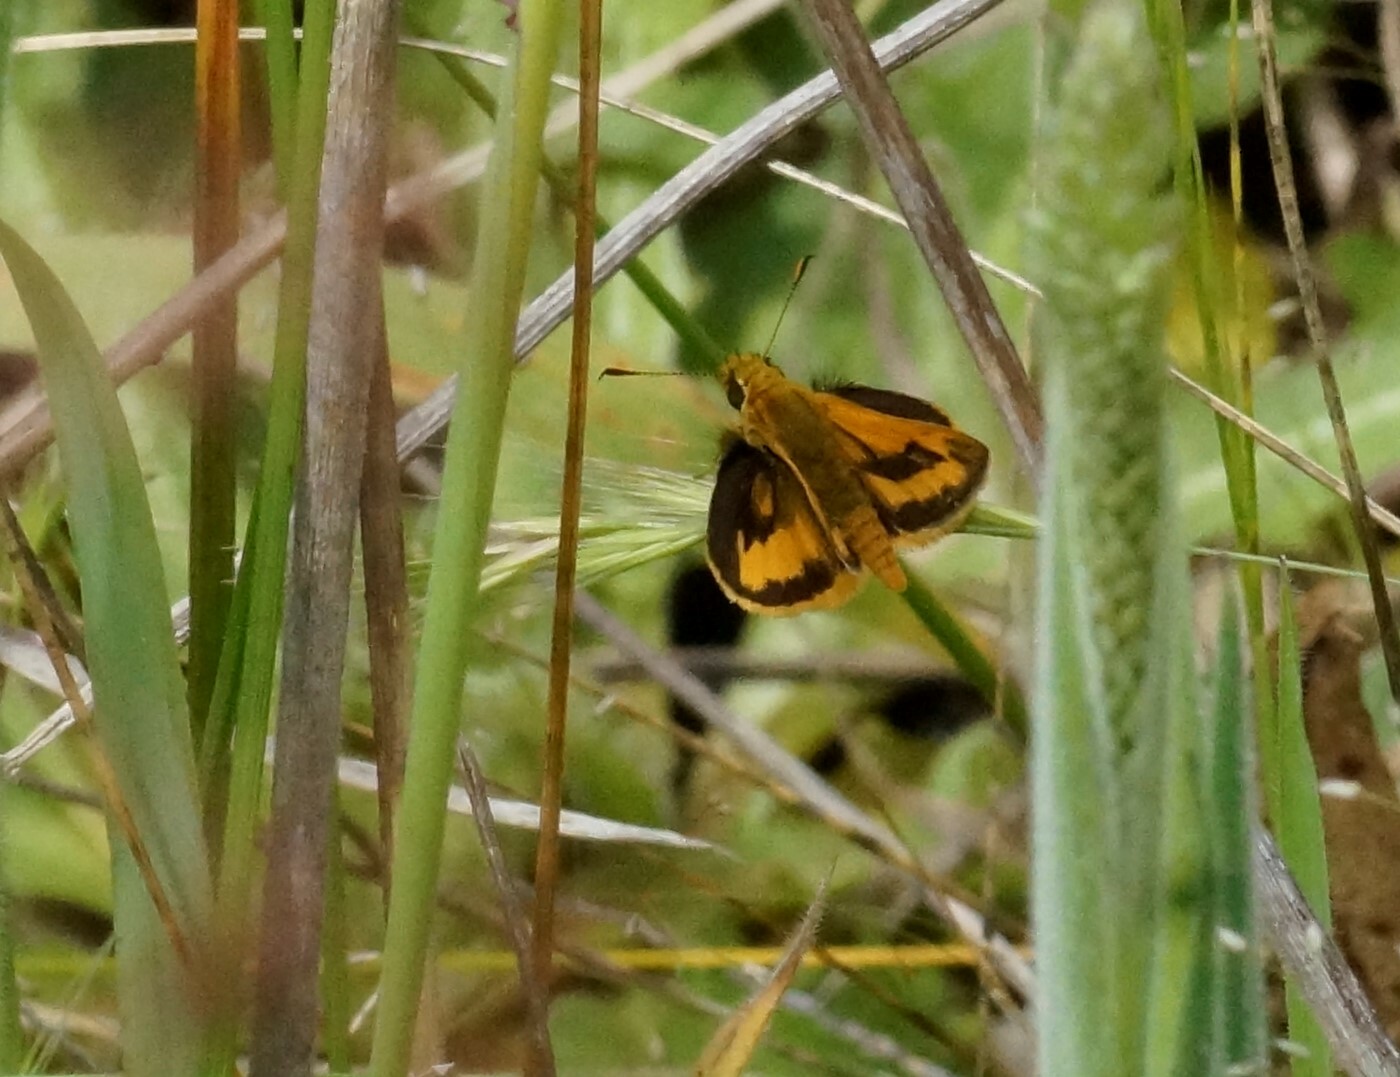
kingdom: Animalia
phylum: Arthropoda
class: Insecta
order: Lepidoptera
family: Hesperiidae
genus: Ocybadistes
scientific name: Ocybadistes walkeri
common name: Yellow-banded dart
